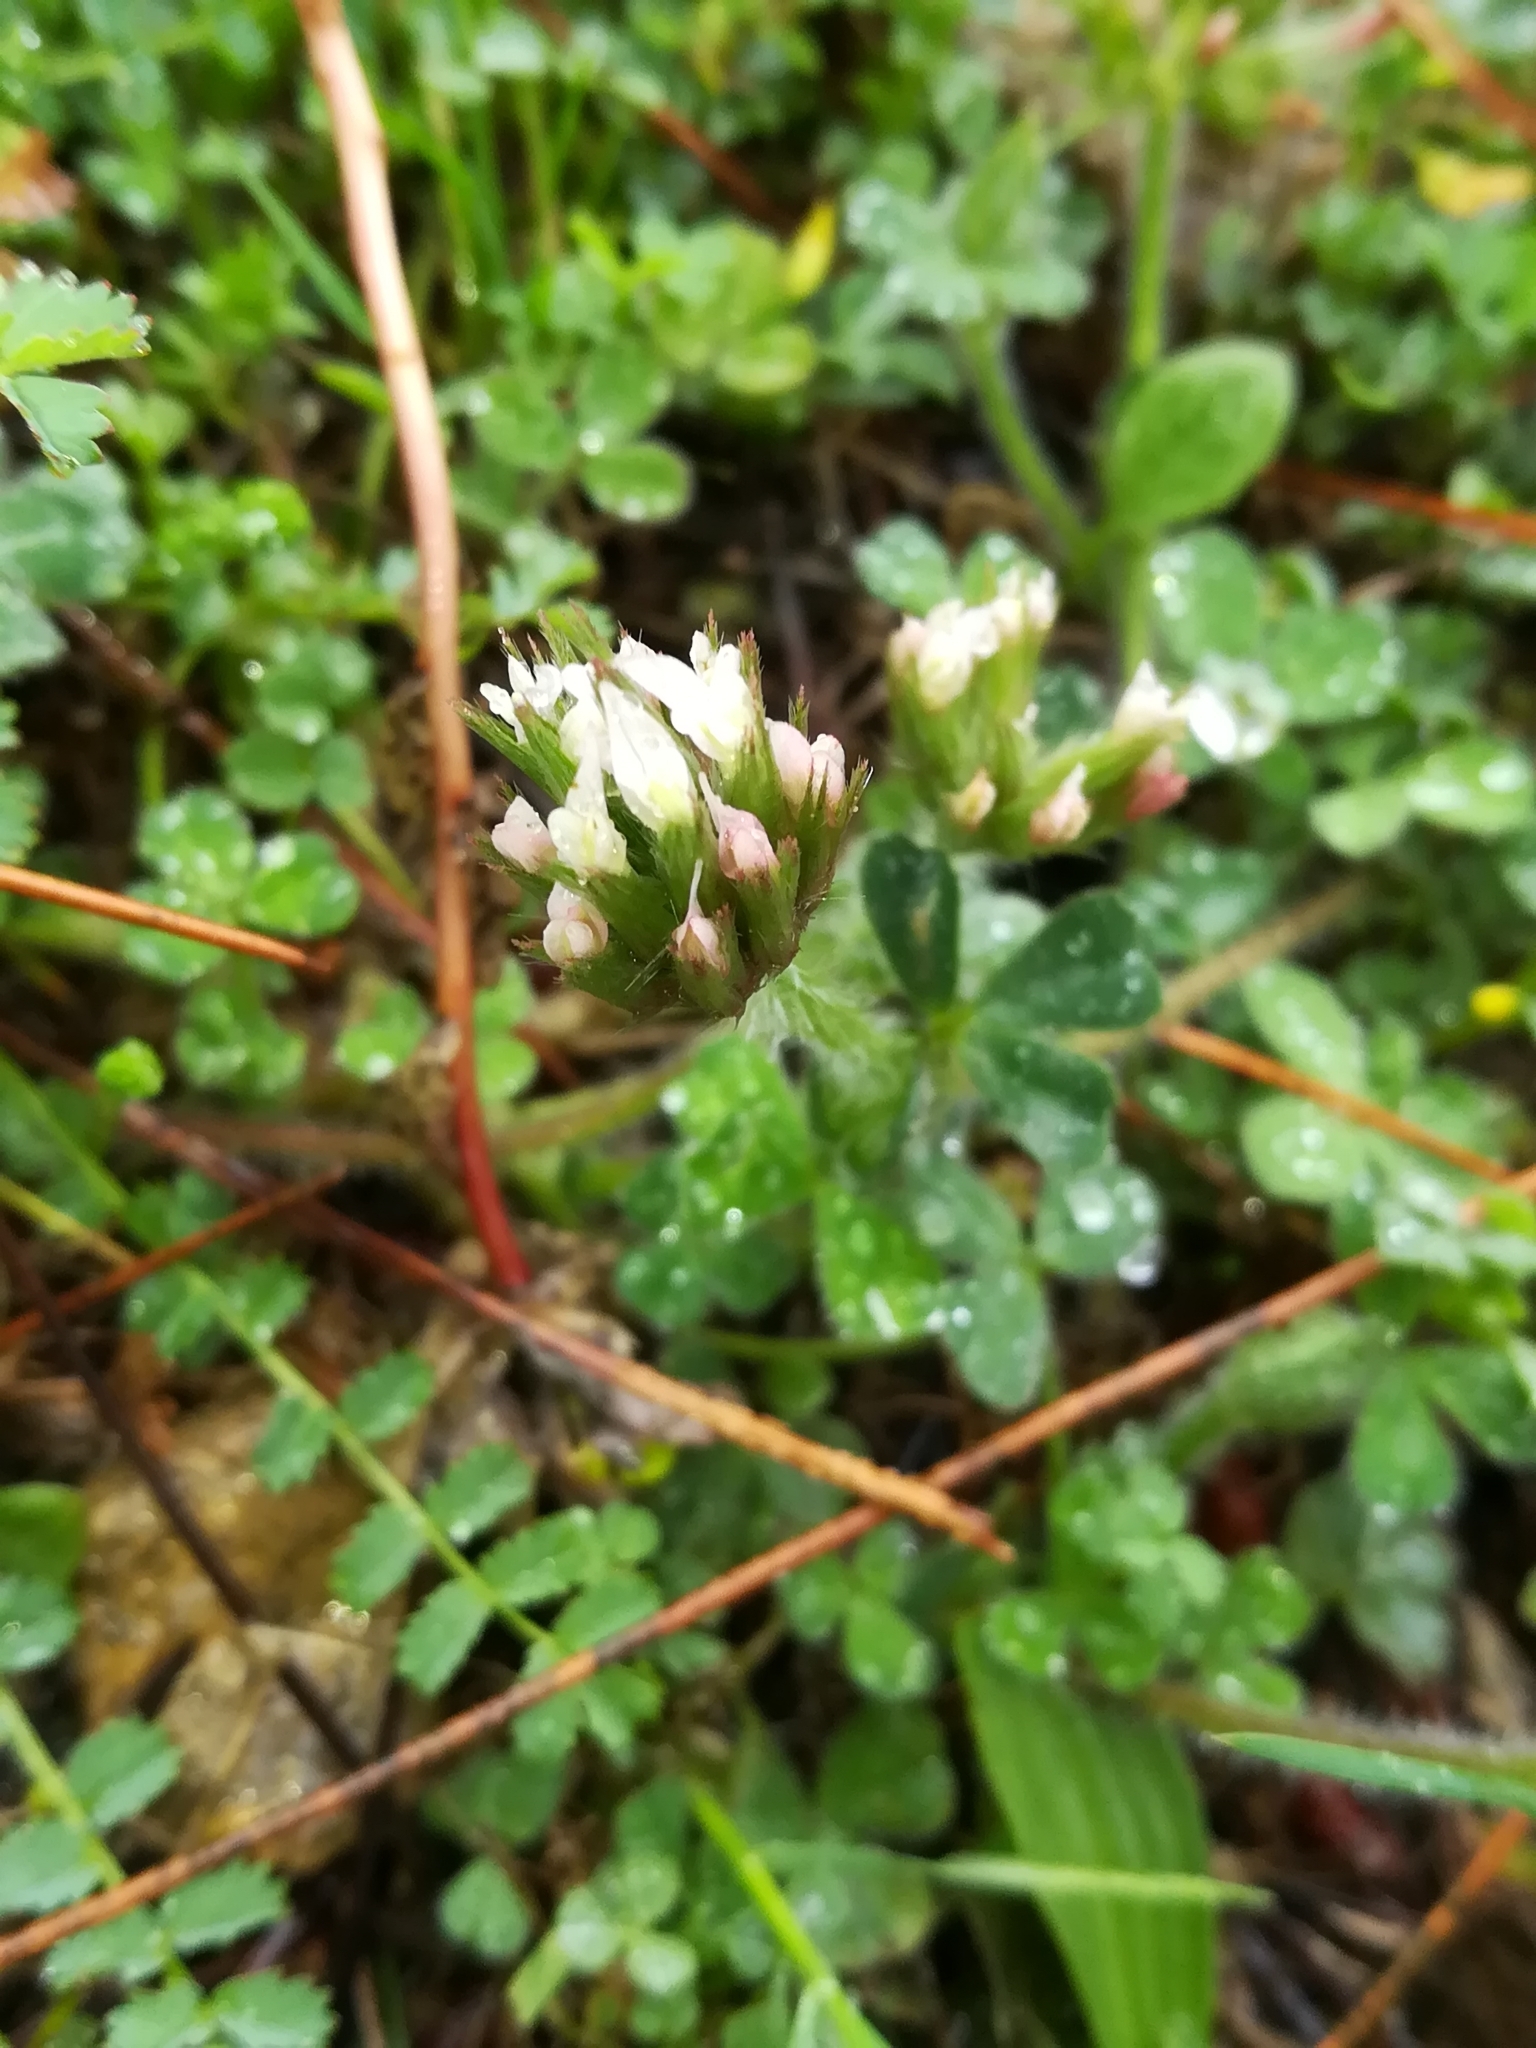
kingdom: Plantae
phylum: Tracheophyta
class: Magnoliopsida
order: Fabales
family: Fabaceae
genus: Trifolium
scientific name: Trifolium stellatum
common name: Starry clover
